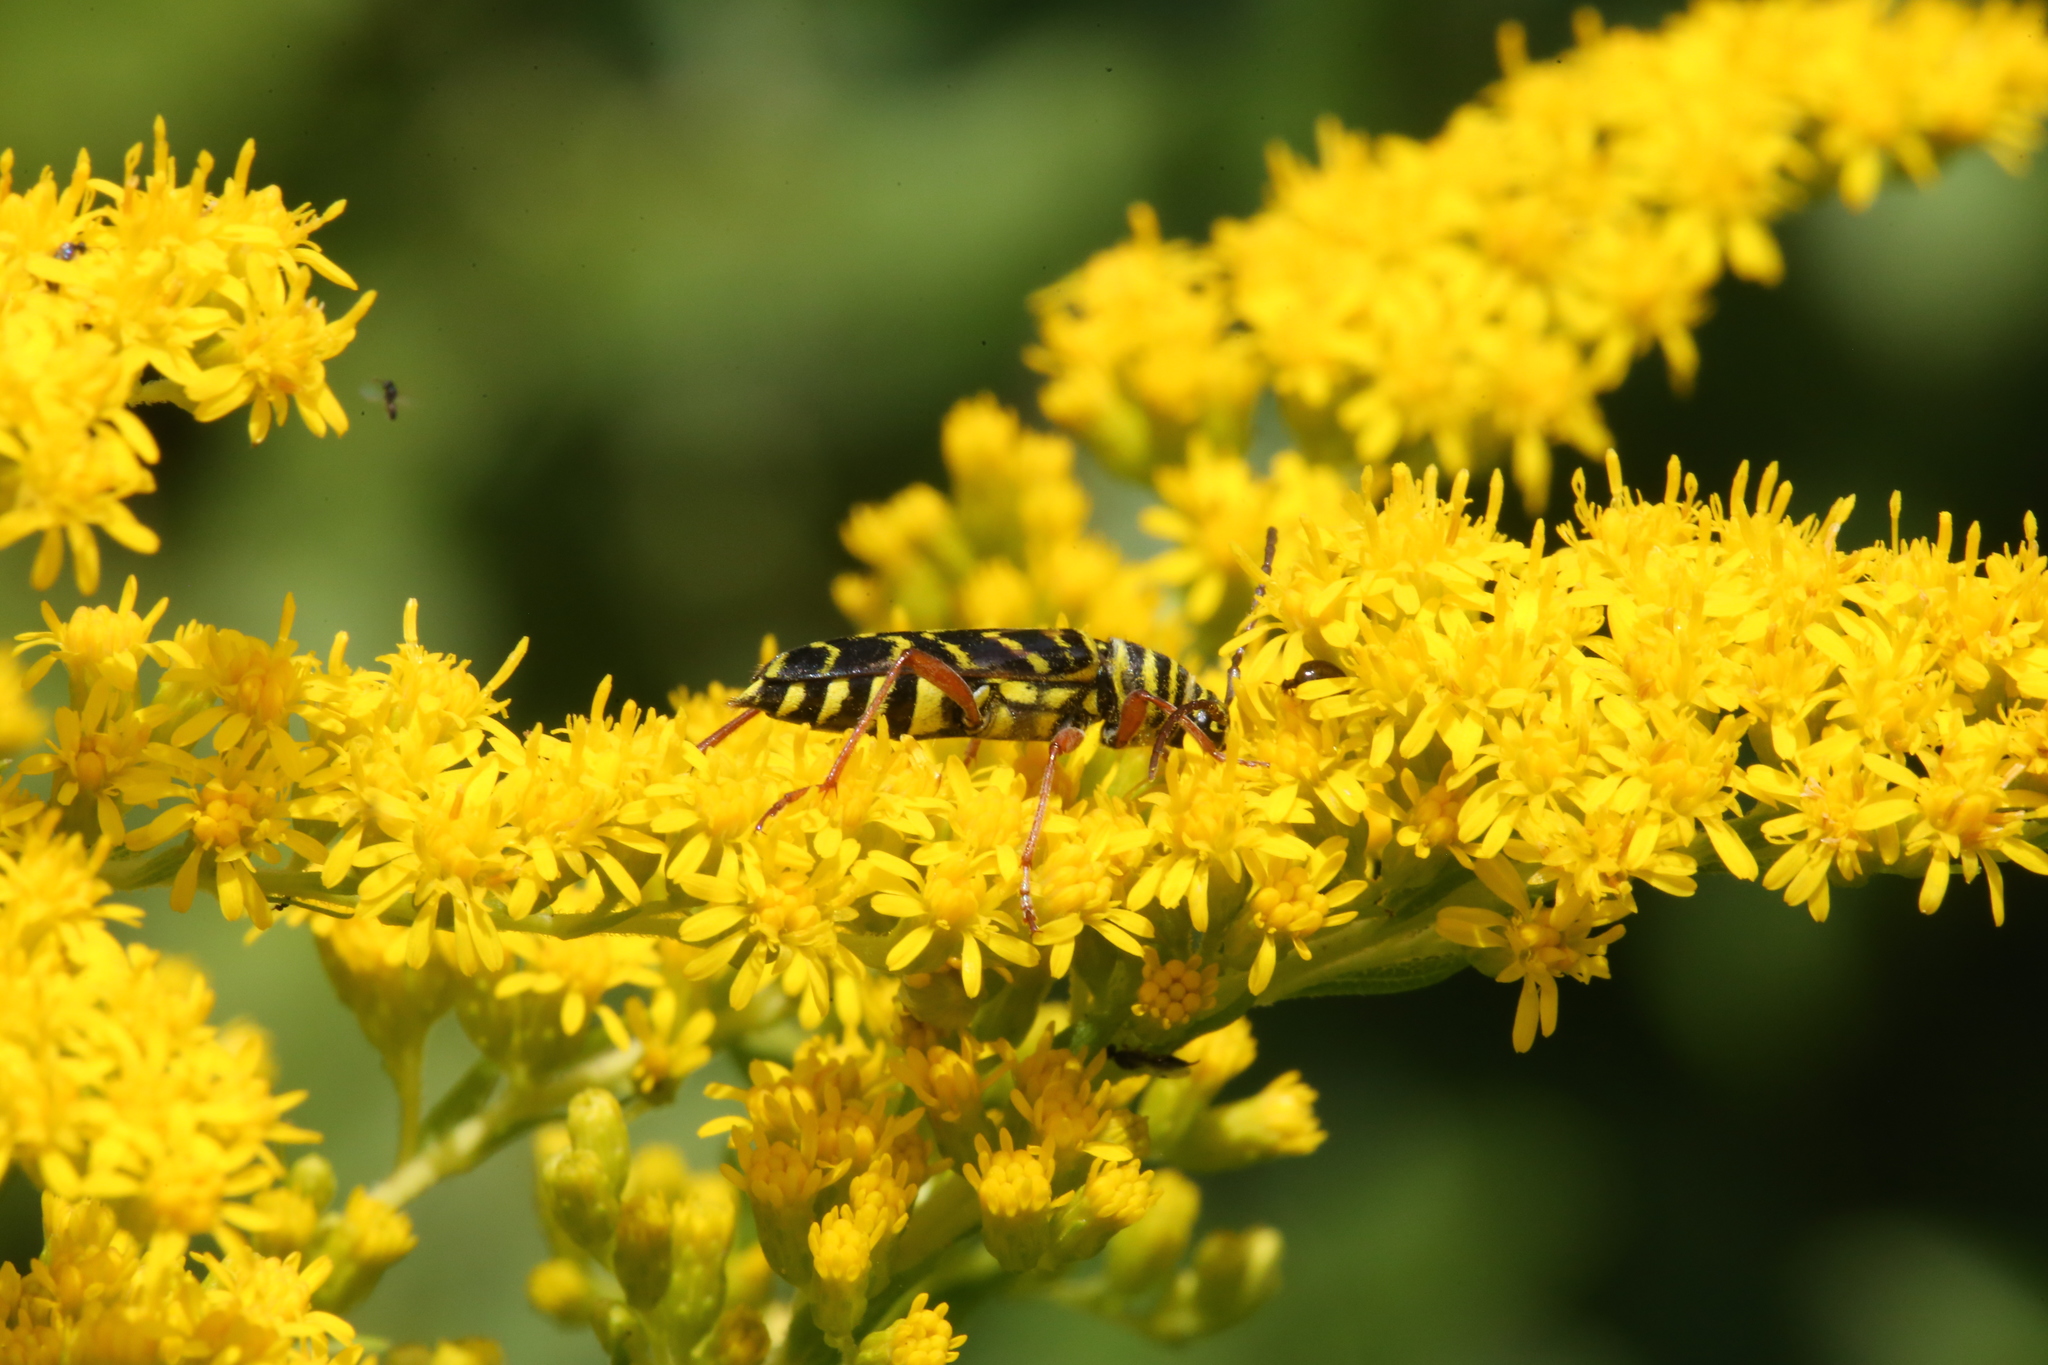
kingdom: Animalia
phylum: Arthropoda
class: Insecta
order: Coleoptera
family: Cerambycidae
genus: Megacyllene
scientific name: Megacyllene robiniae
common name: Locust borer
